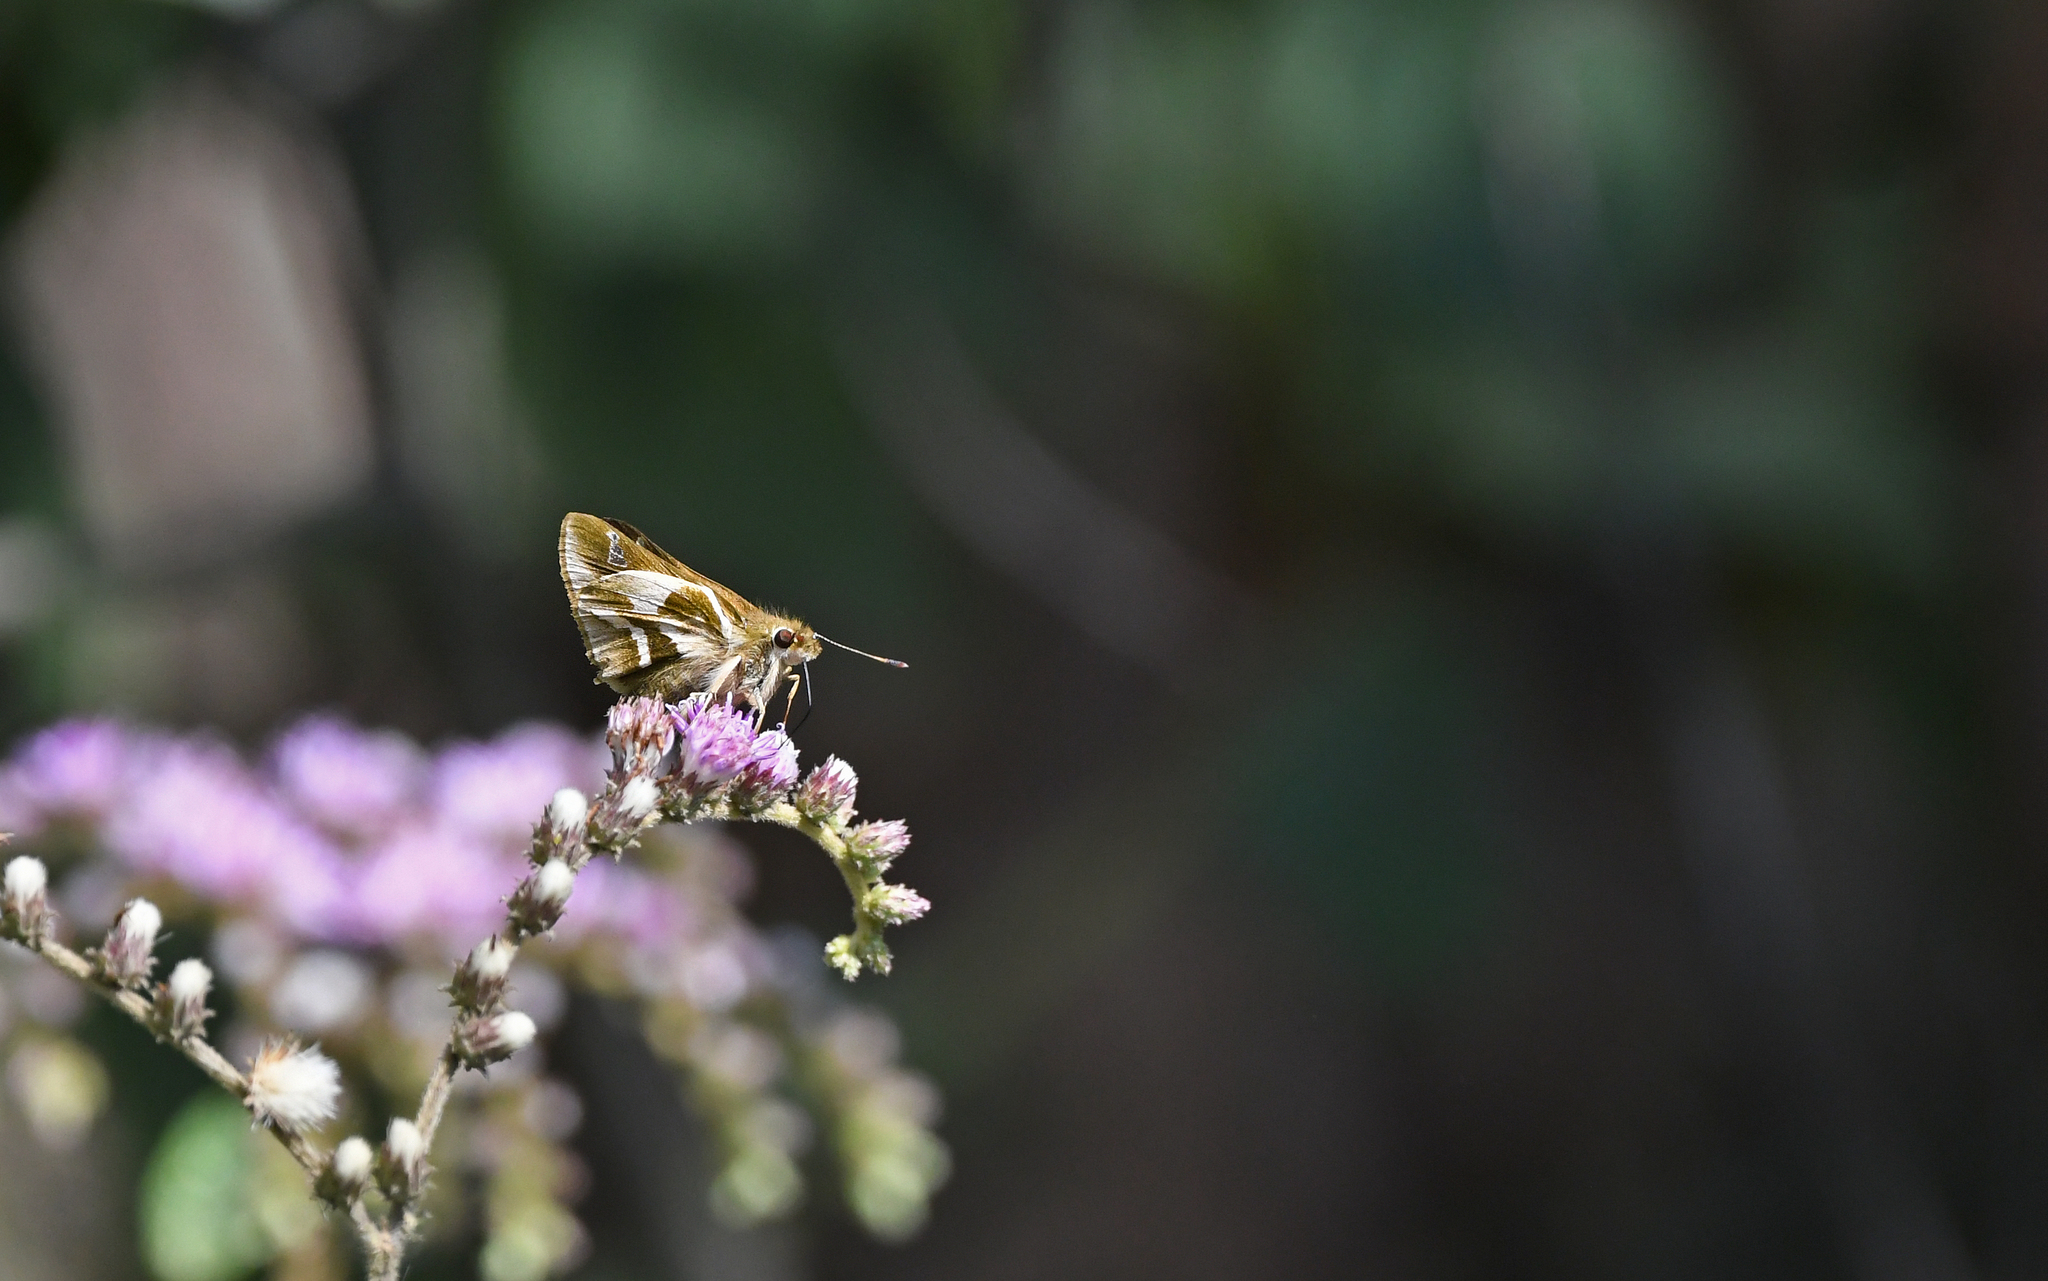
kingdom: Animalia
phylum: Arthropoda
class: Insecta
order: Lepidoptera
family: Hesperiidae
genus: Serdis
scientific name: Serdis viridicans
